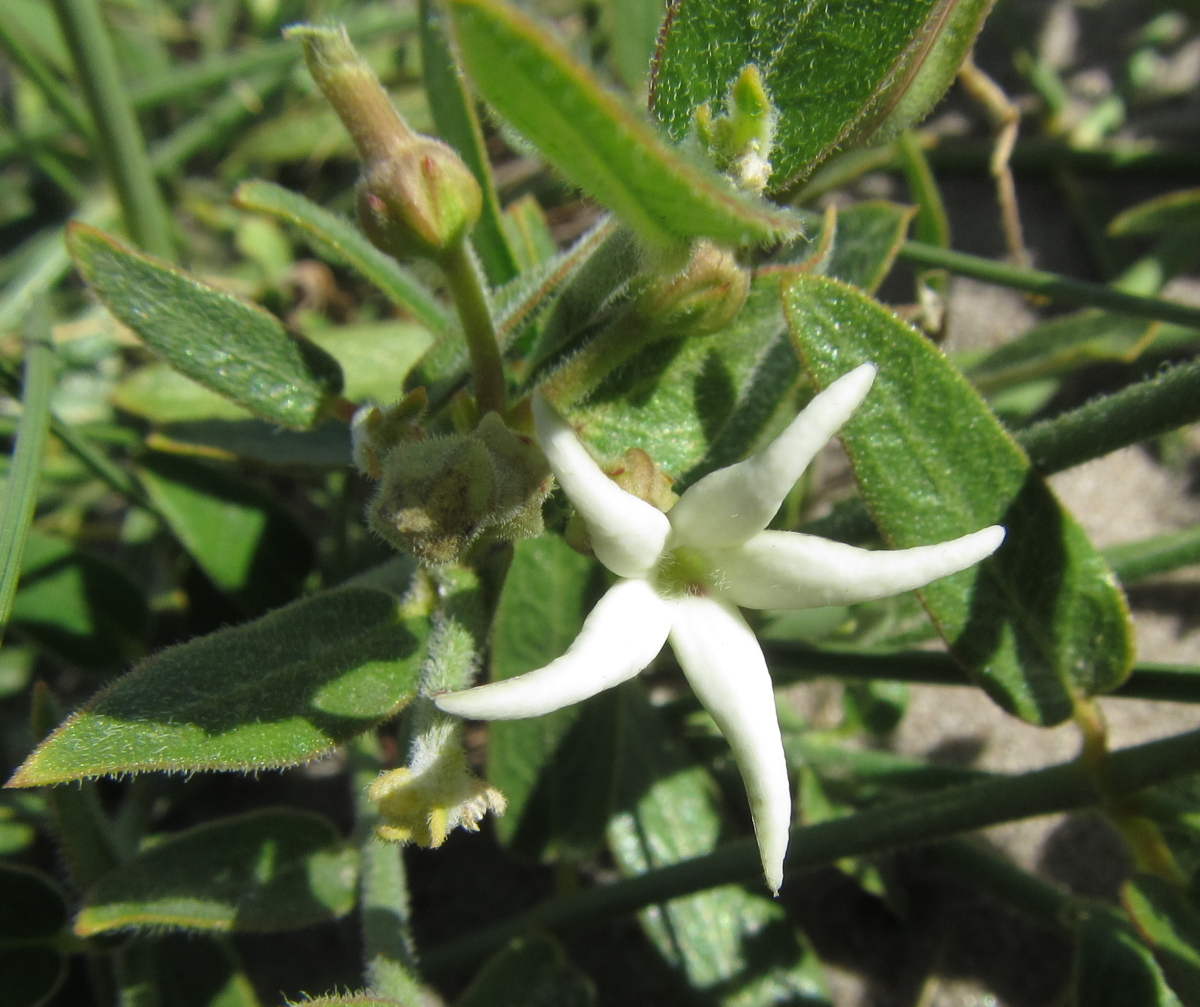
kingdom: Plantae
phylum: Tracheophyta
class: Magnoliopsida
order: Gentianales
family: Apocynaceae
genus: Orthanthera
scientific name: Orthanthera jasminiflora
